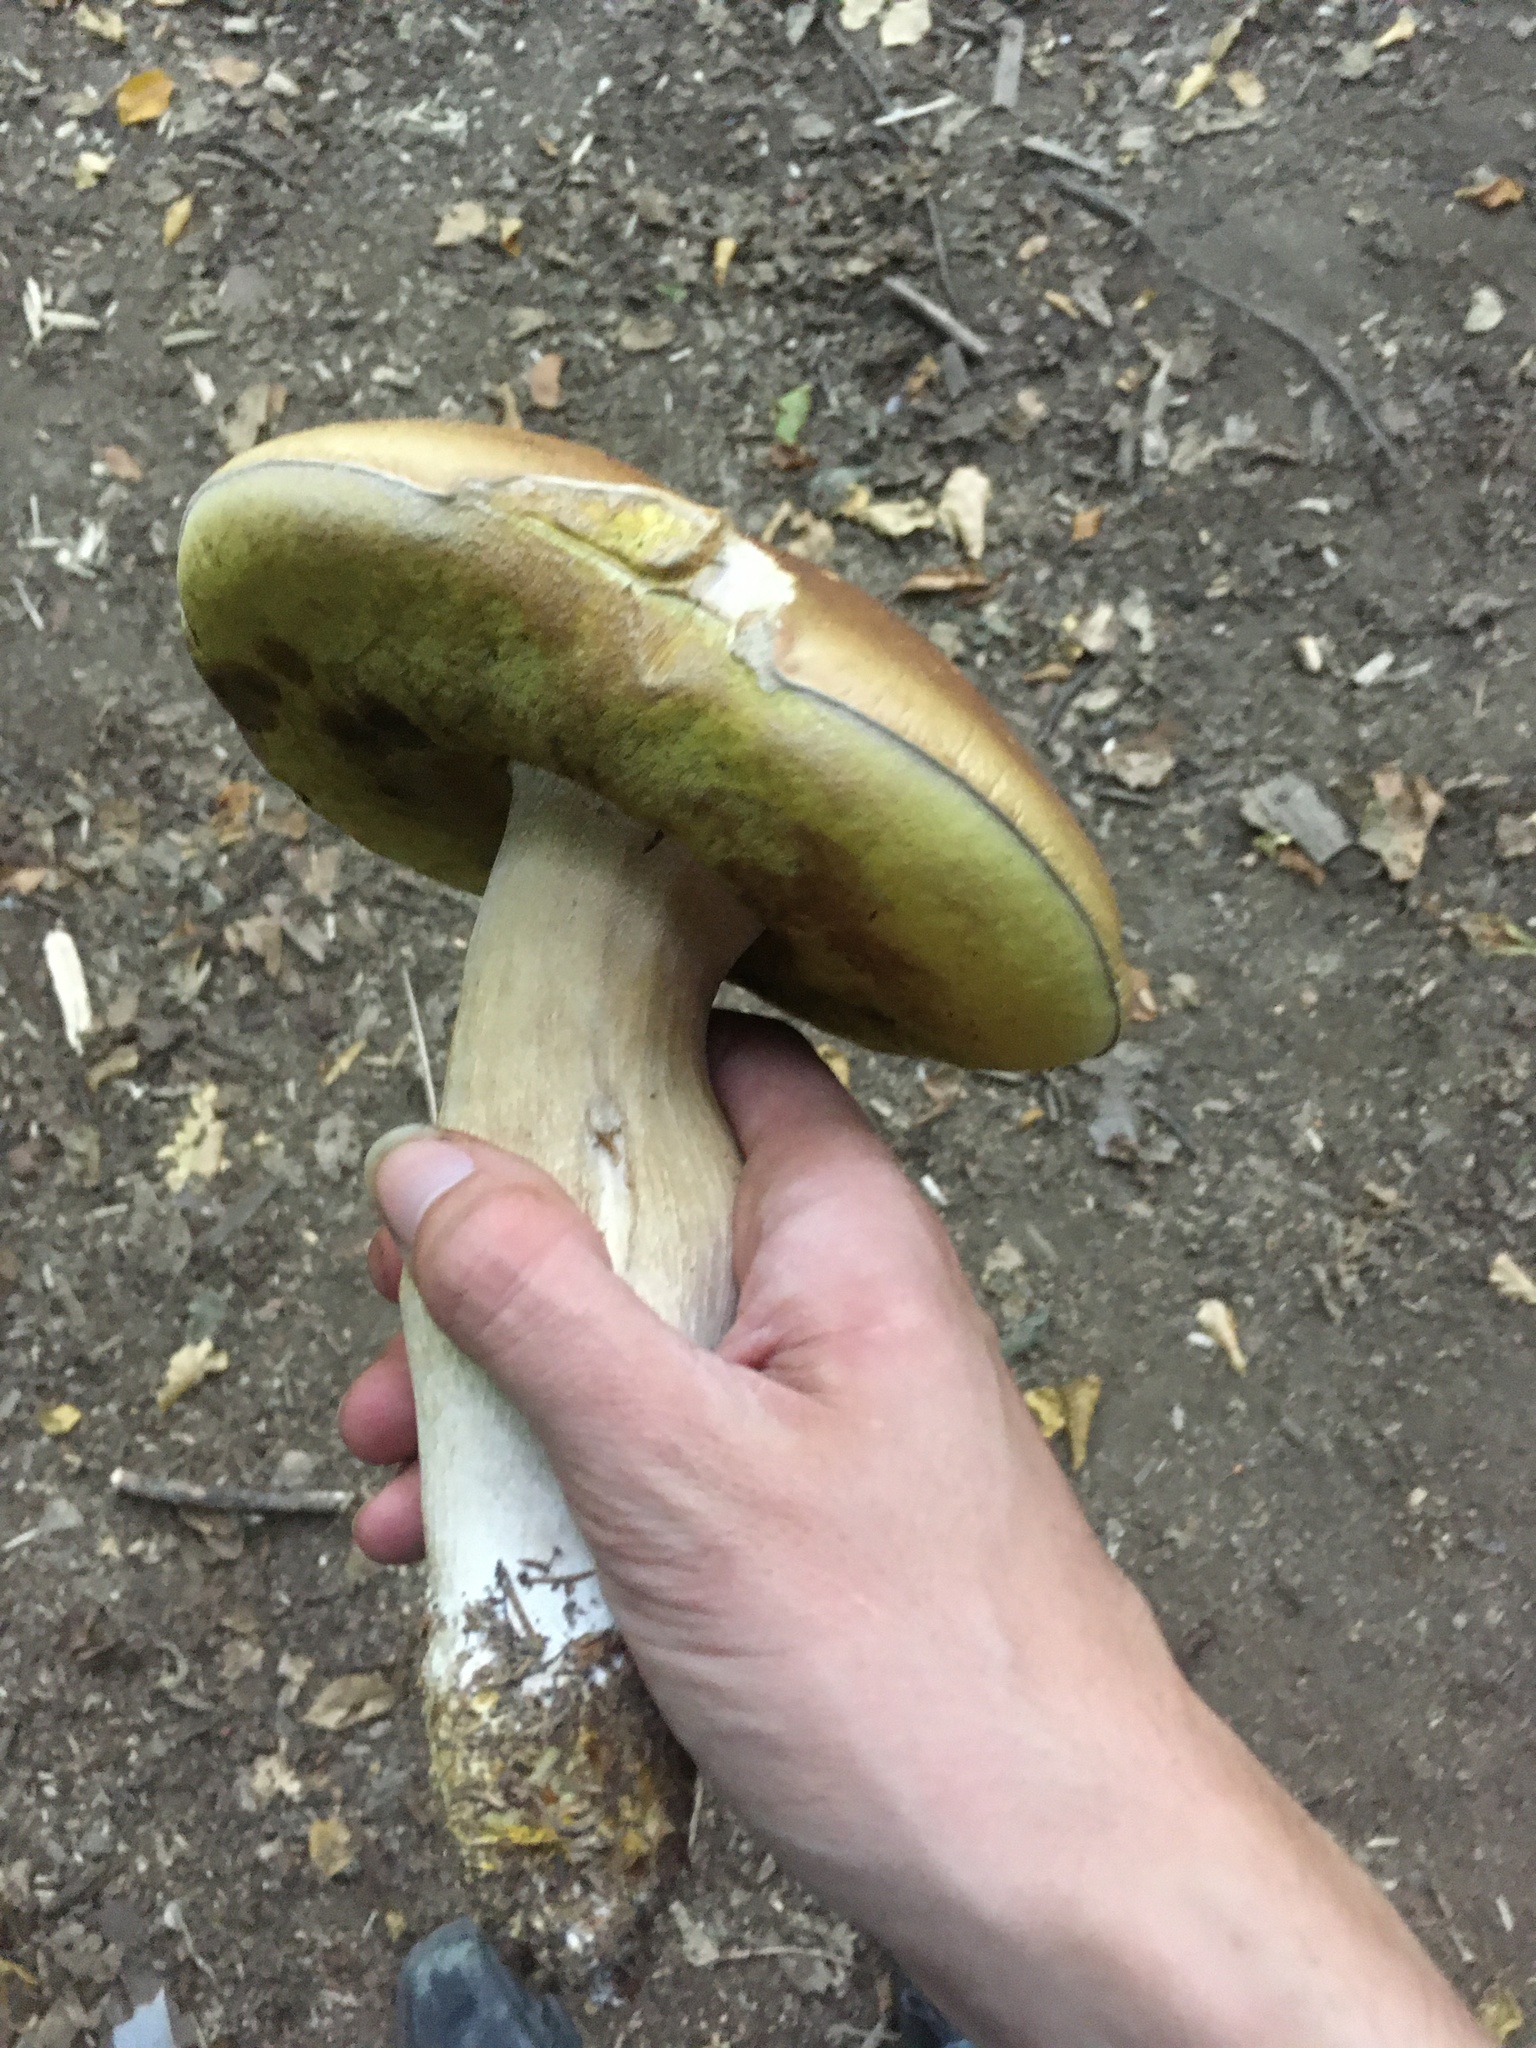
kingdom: Fungi
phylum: Basidiomycota
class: Agaricomycetes
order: Boletales
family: Boletaceae
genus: Boletus
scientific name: Boletus edulis
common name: Cep
